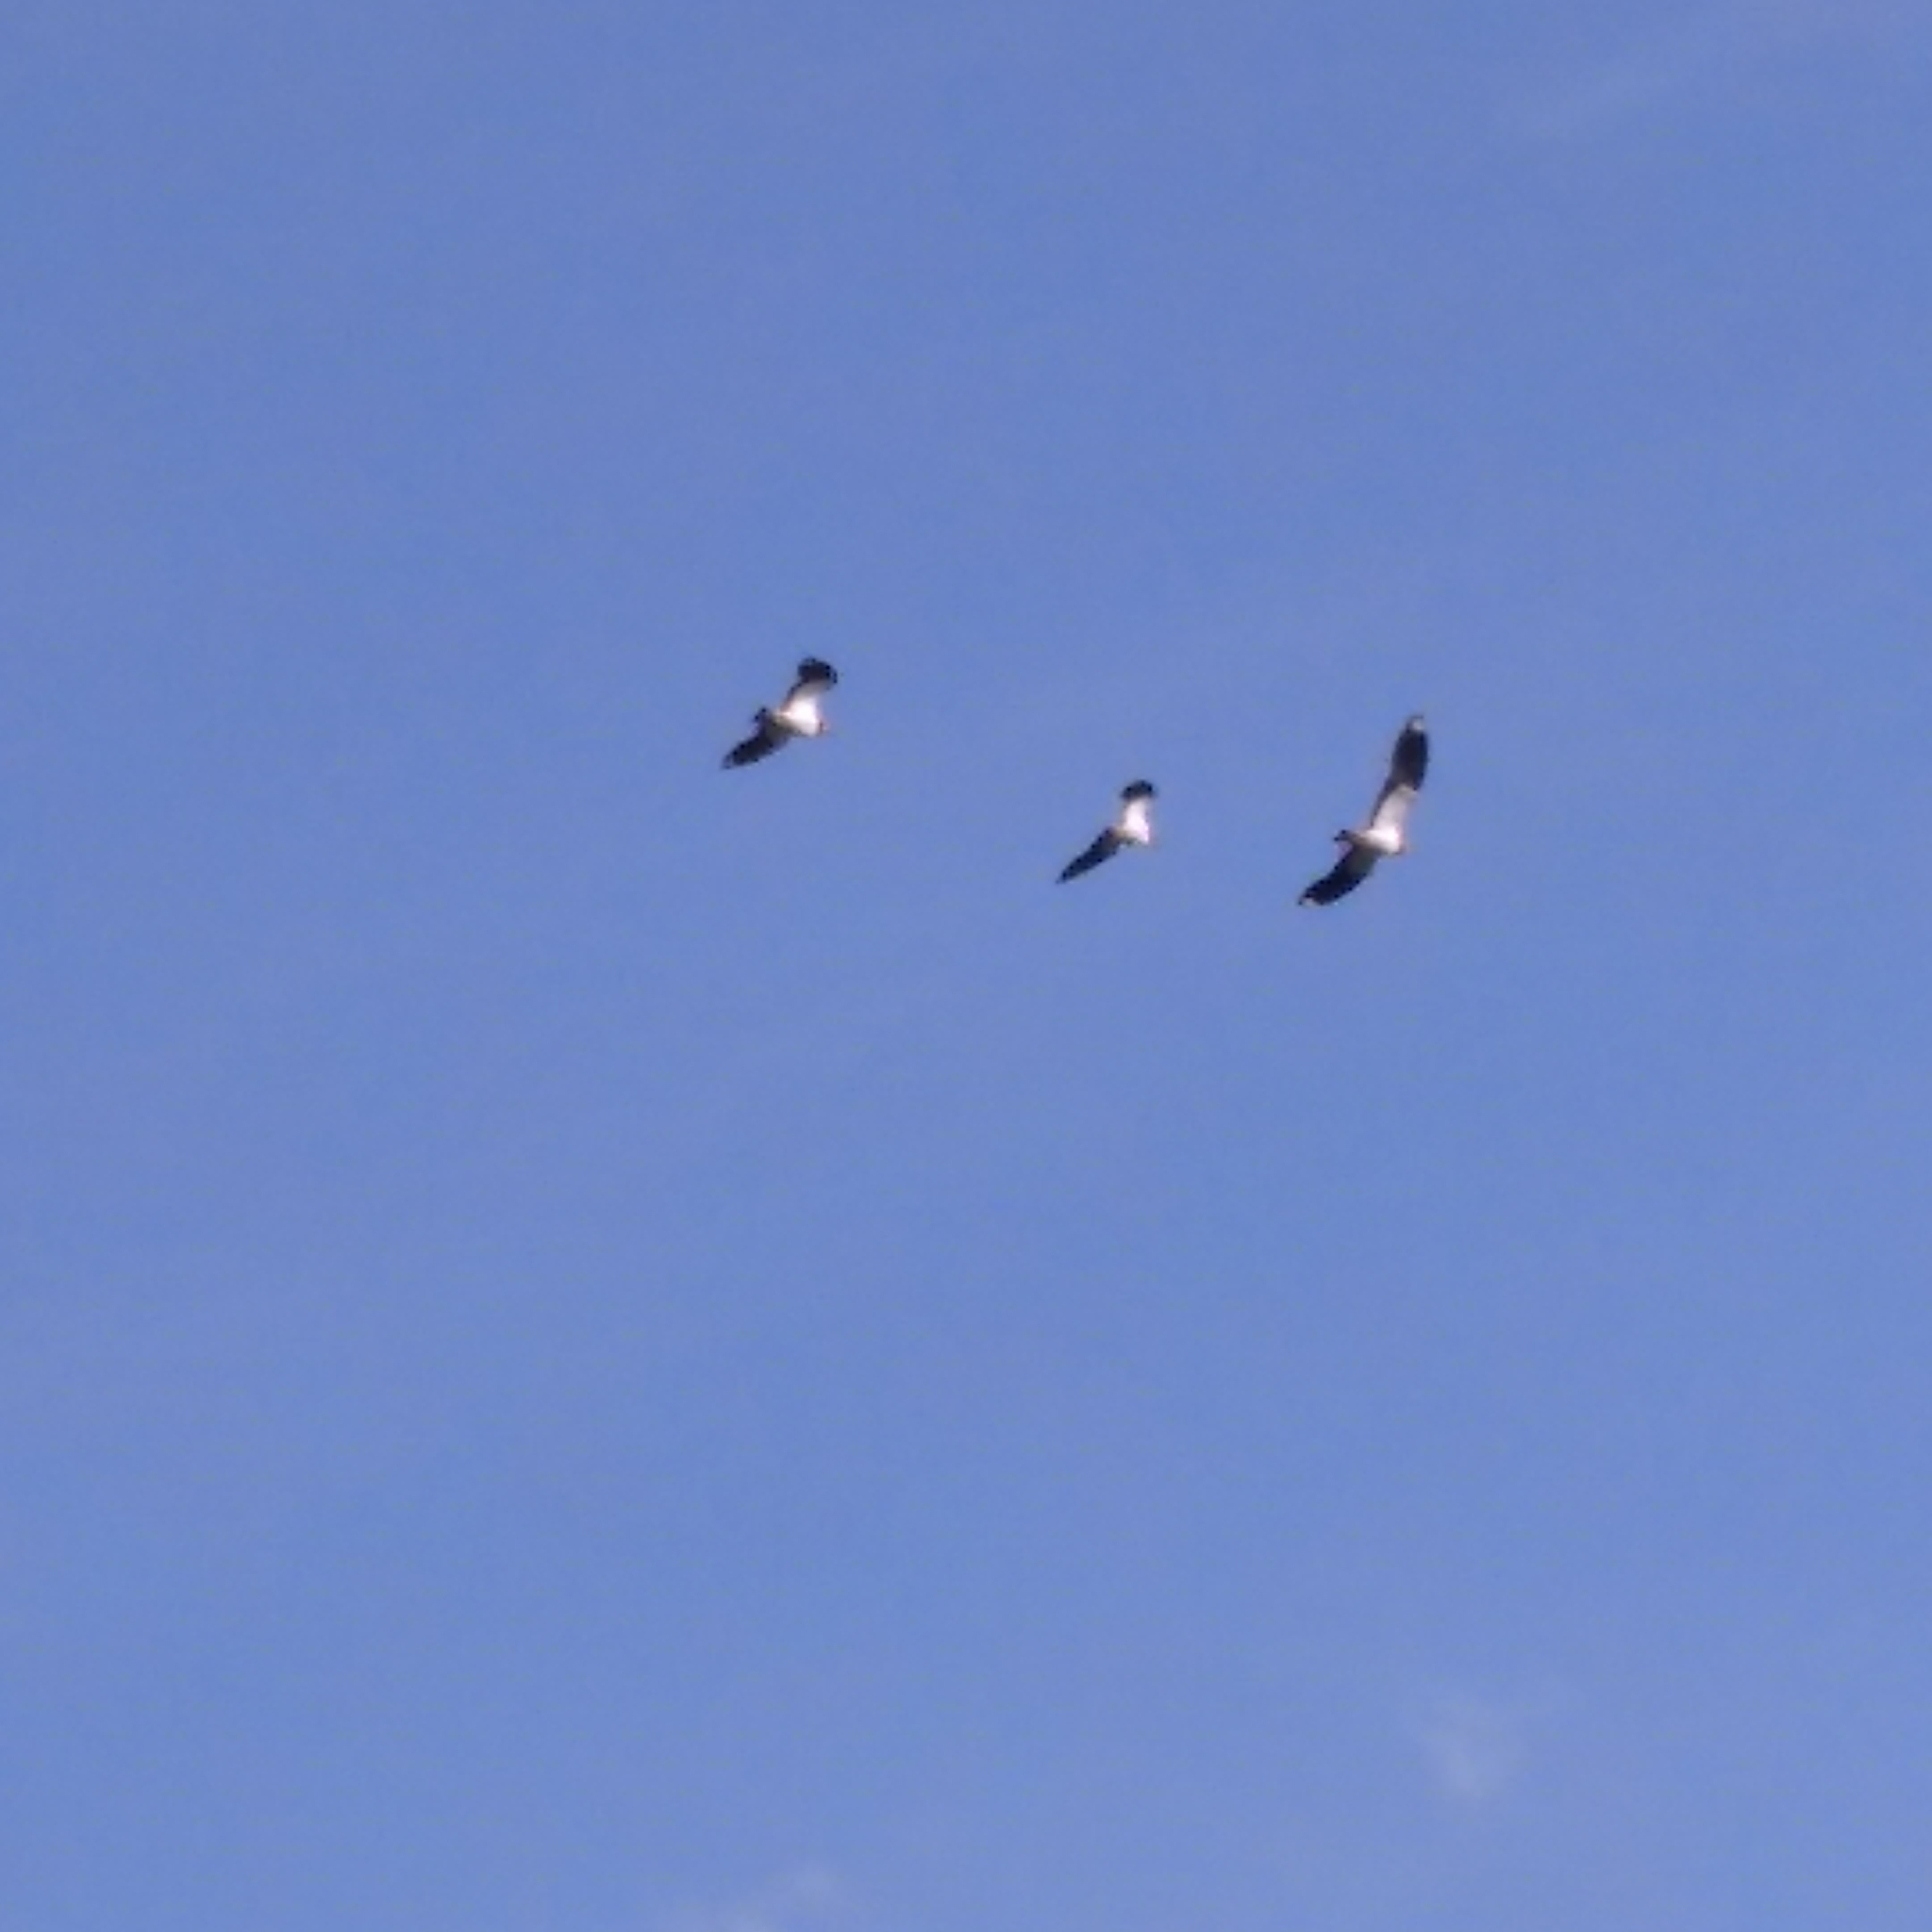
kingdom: Animalia
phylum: Chordata
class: Aves
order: Charadriiformes
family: Charadriidae
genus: Vanellus
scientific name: Vanellus vanellus
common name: Northern lapwing
